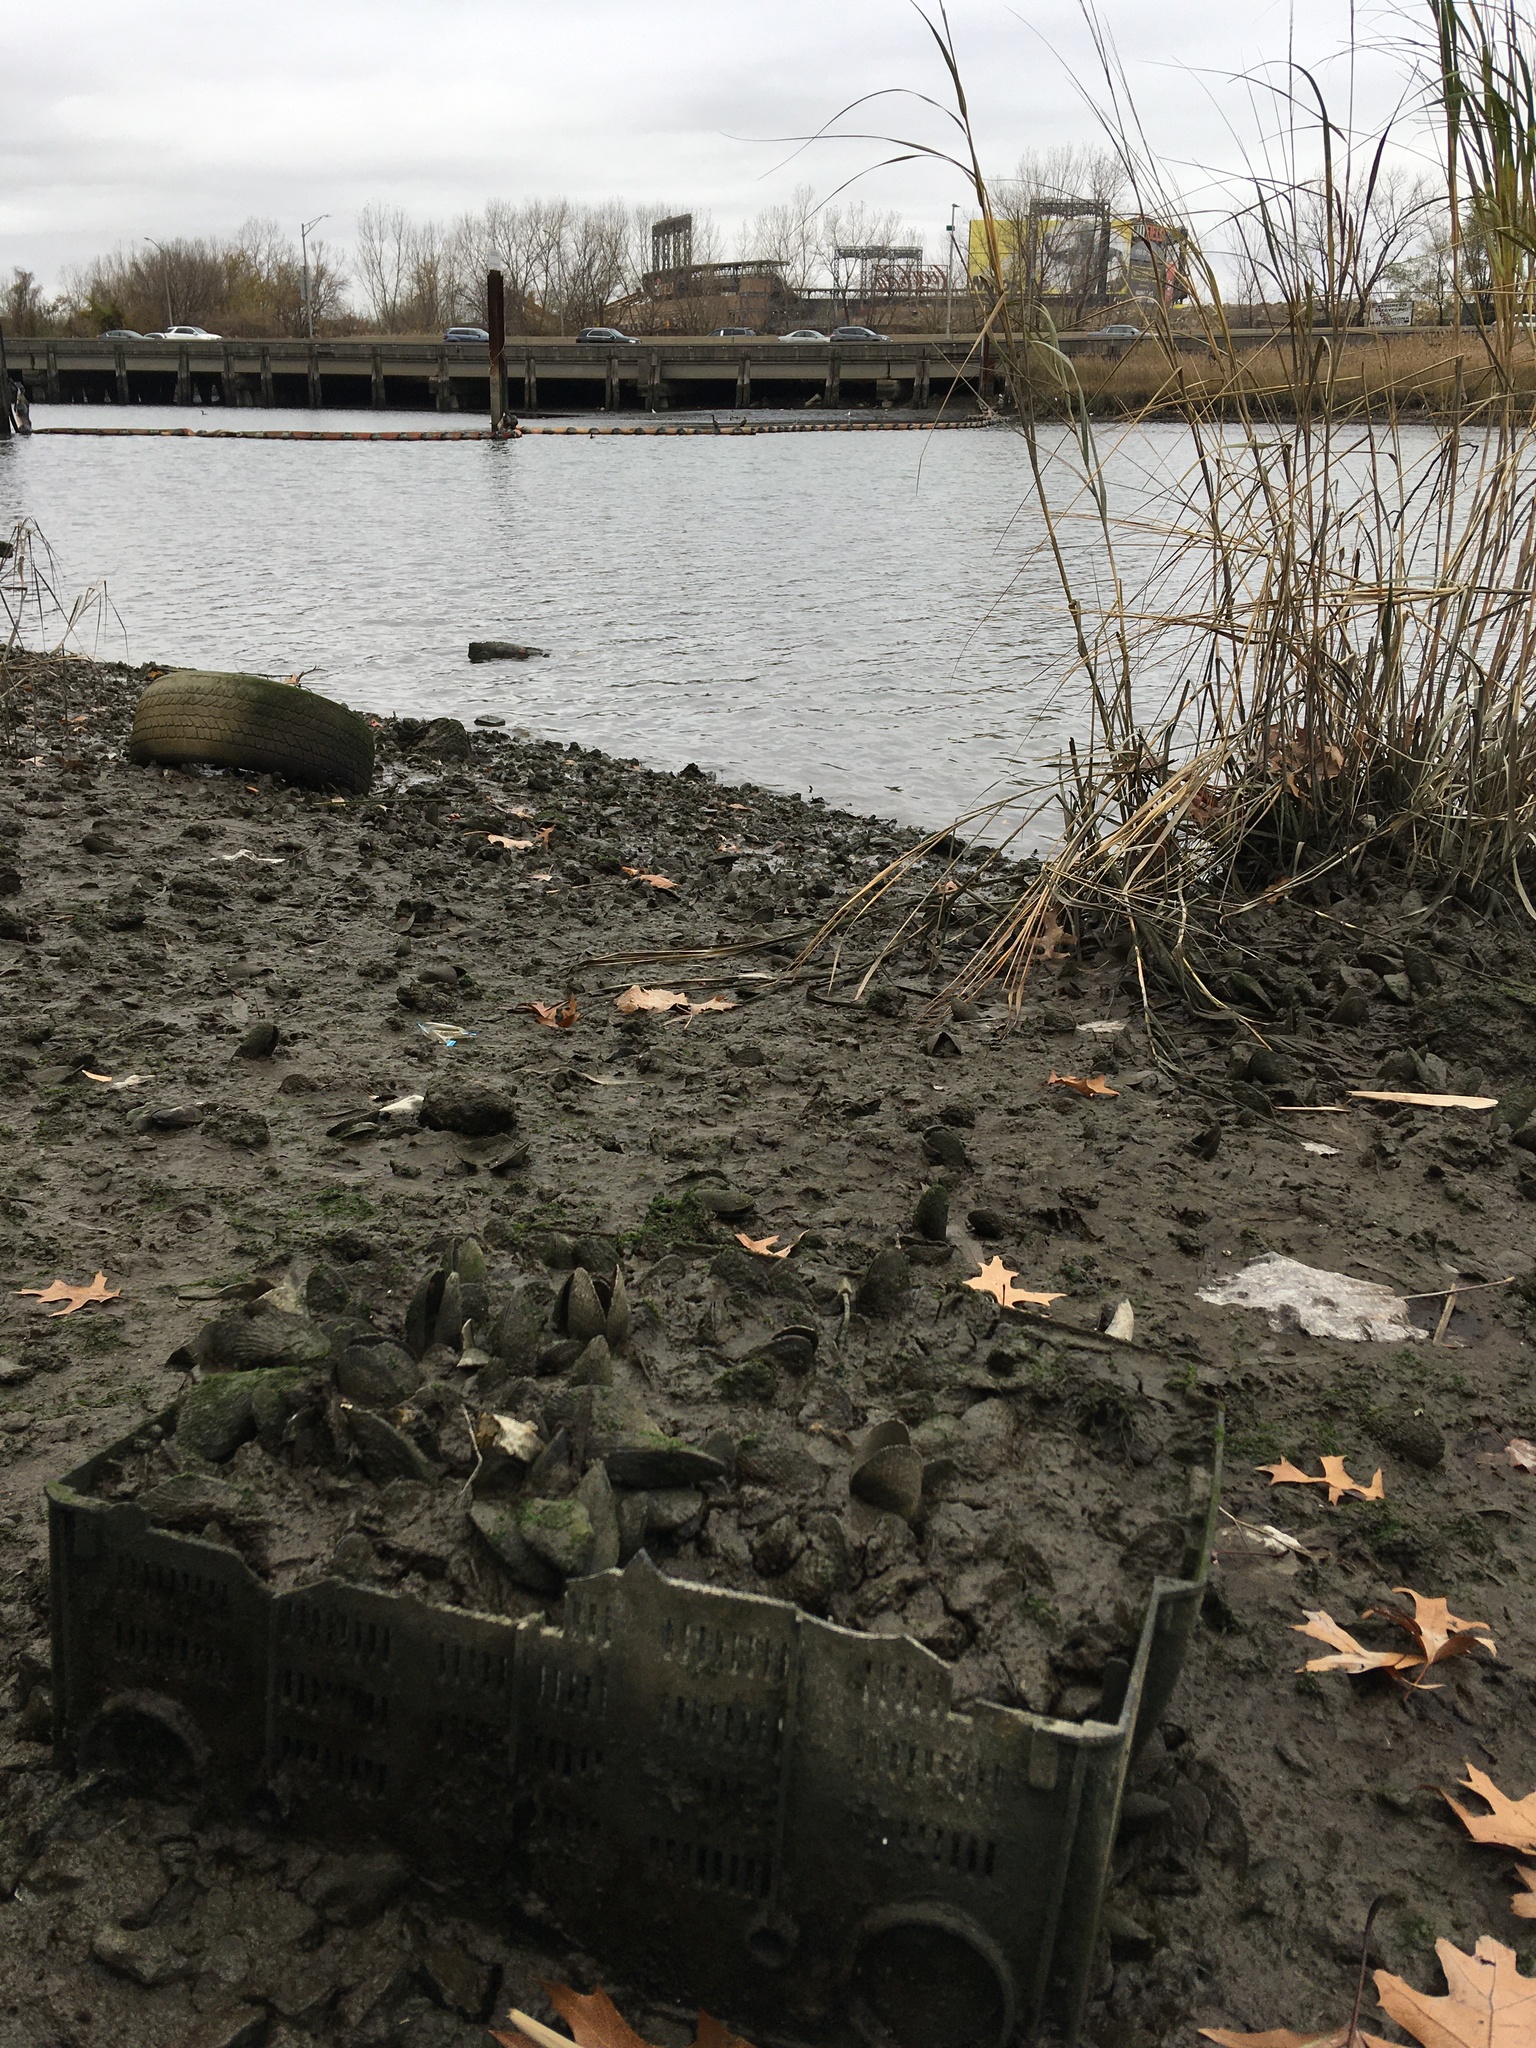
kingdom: Animalia
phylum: Mollusca
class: Bivalvia
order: Mytilida
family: Mytilidae
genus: Geukensia
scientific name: Geukensia demissa
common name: Ribbed mussel
